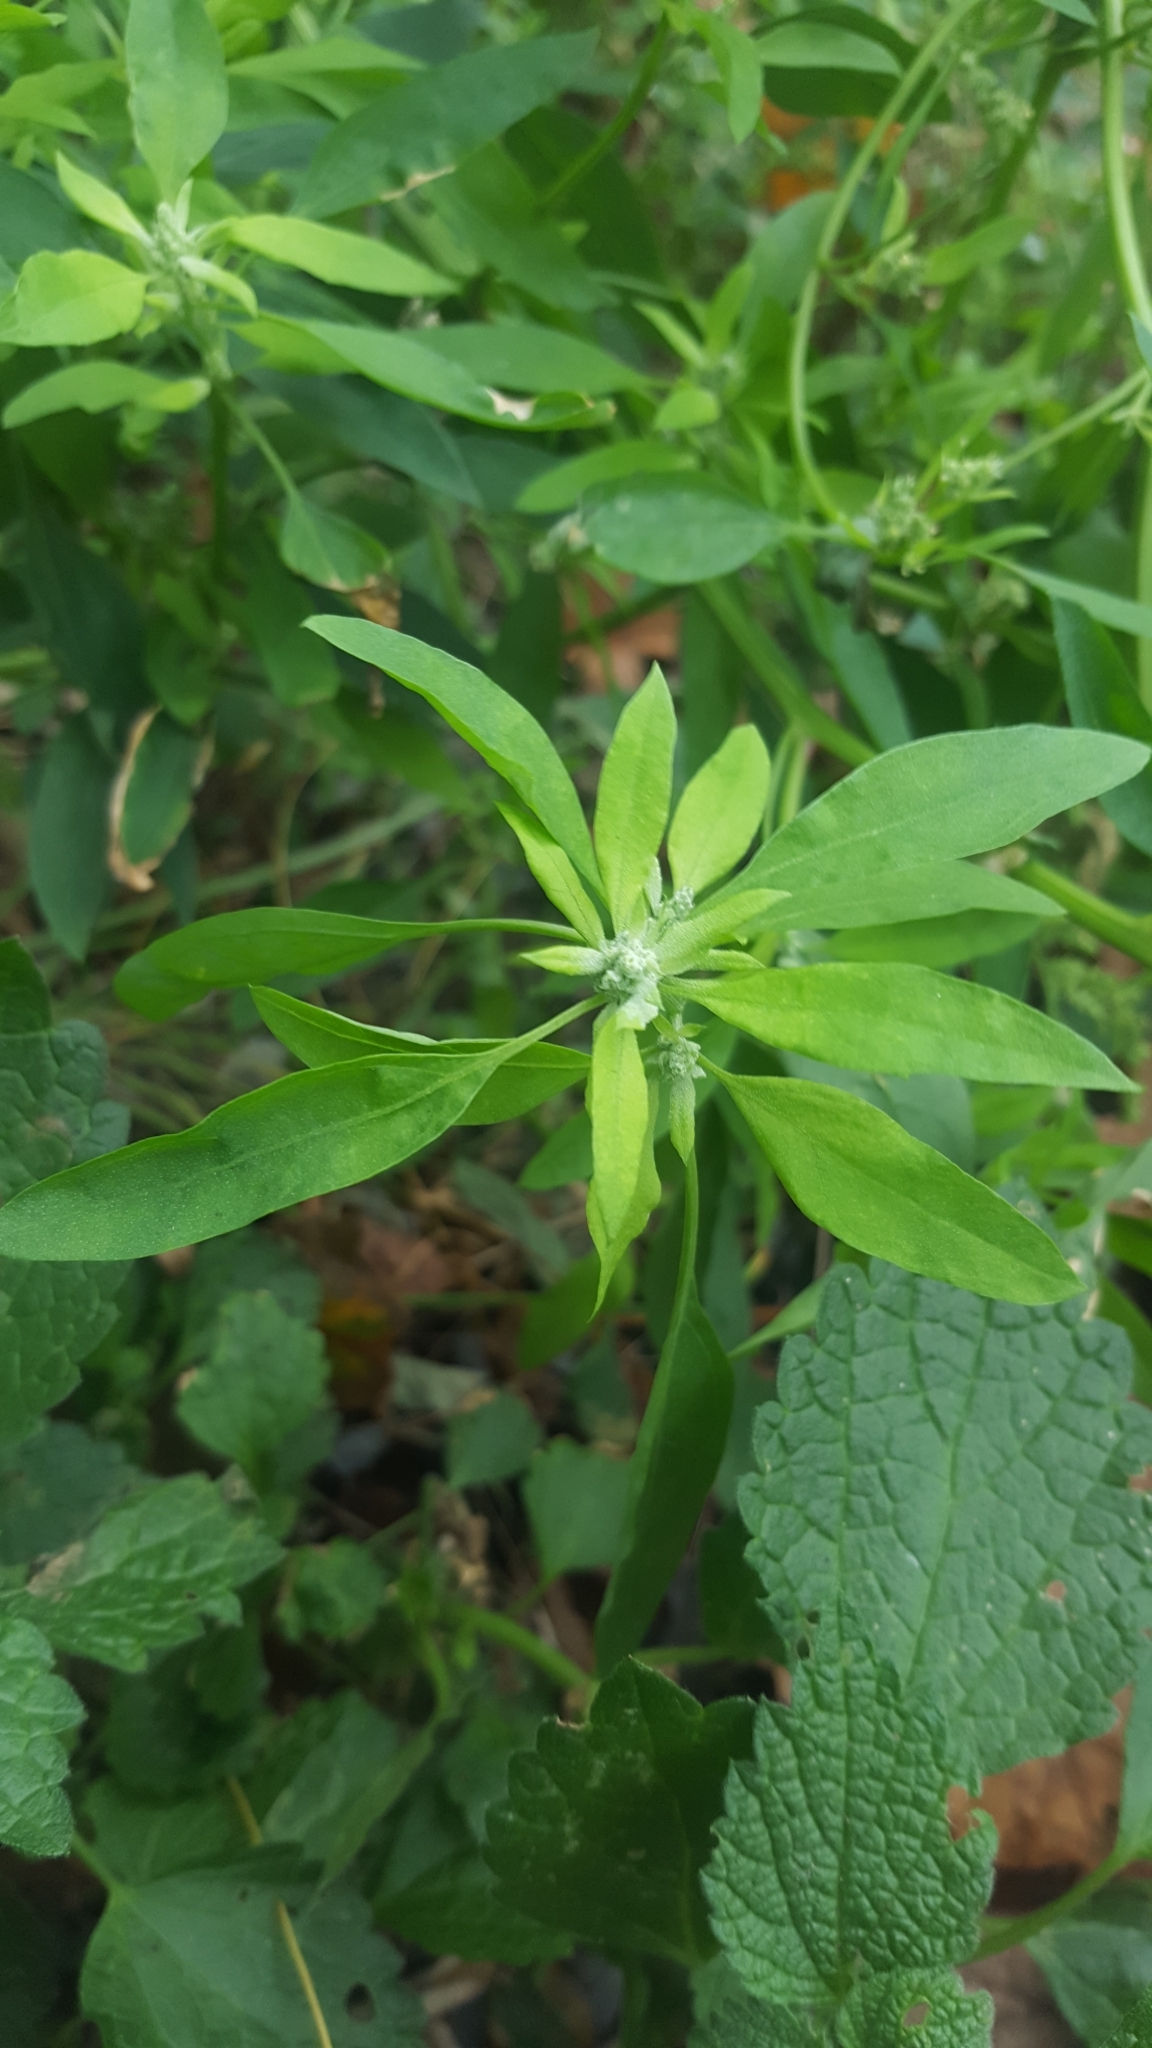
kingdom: Plantae
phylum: Tracheophyta
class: Magnoliopsida
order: Caryophyllales
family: Amaranthaceae
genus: Chenopodium
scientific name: Chenopodium album
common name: Fat-hen
